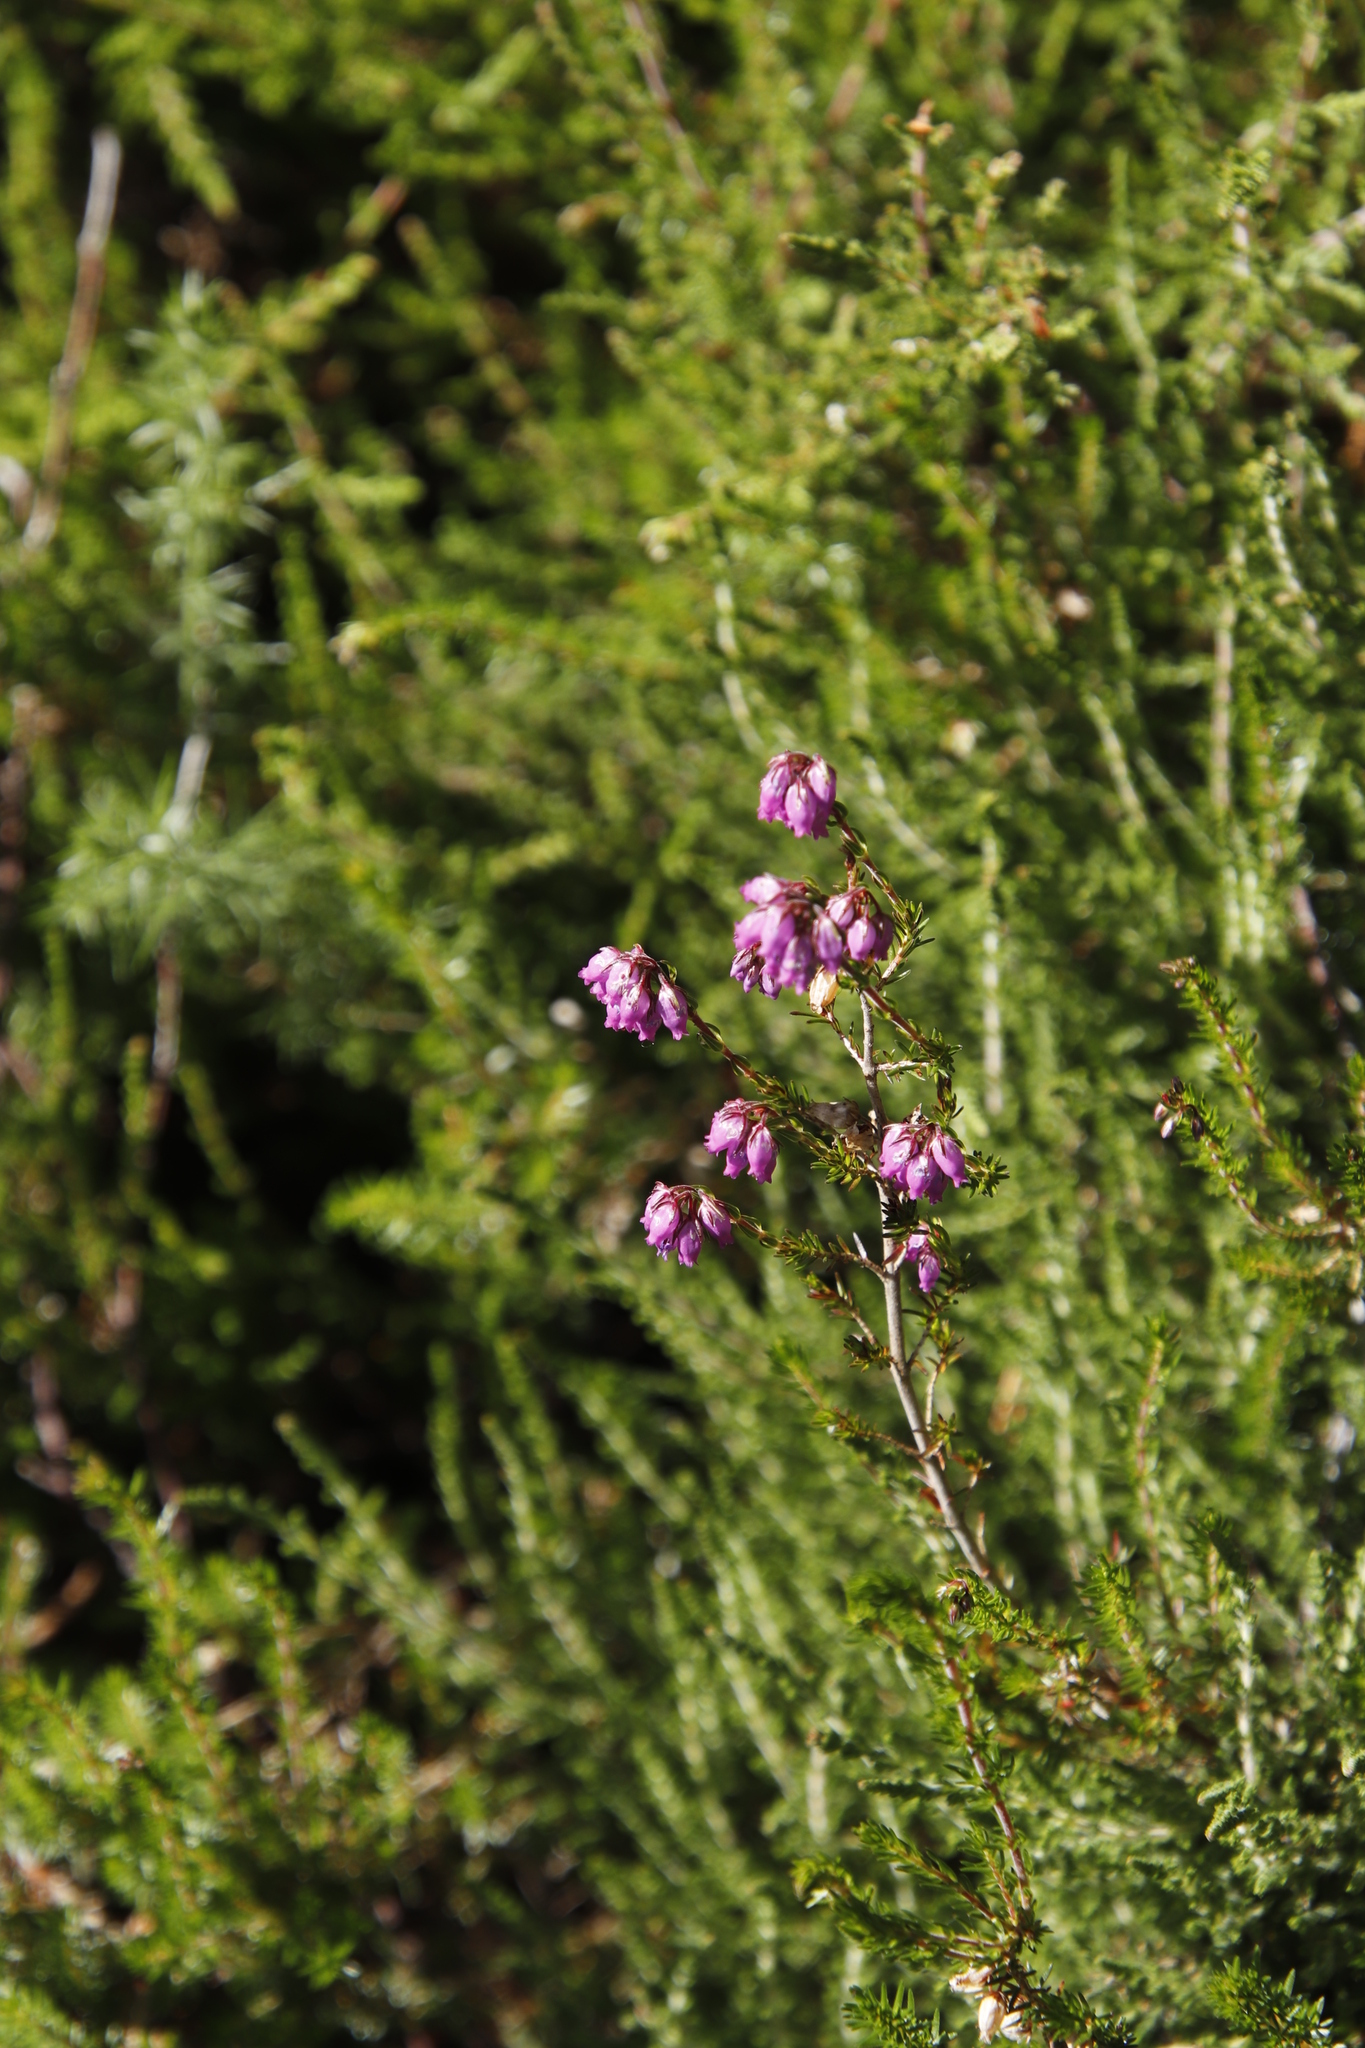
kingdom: Plantae
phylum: Tracheophyta
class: Magnoliopsida
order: Ericales
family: Ericaceae
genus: Erica
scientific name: Erica cinerea
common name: Bell heather
